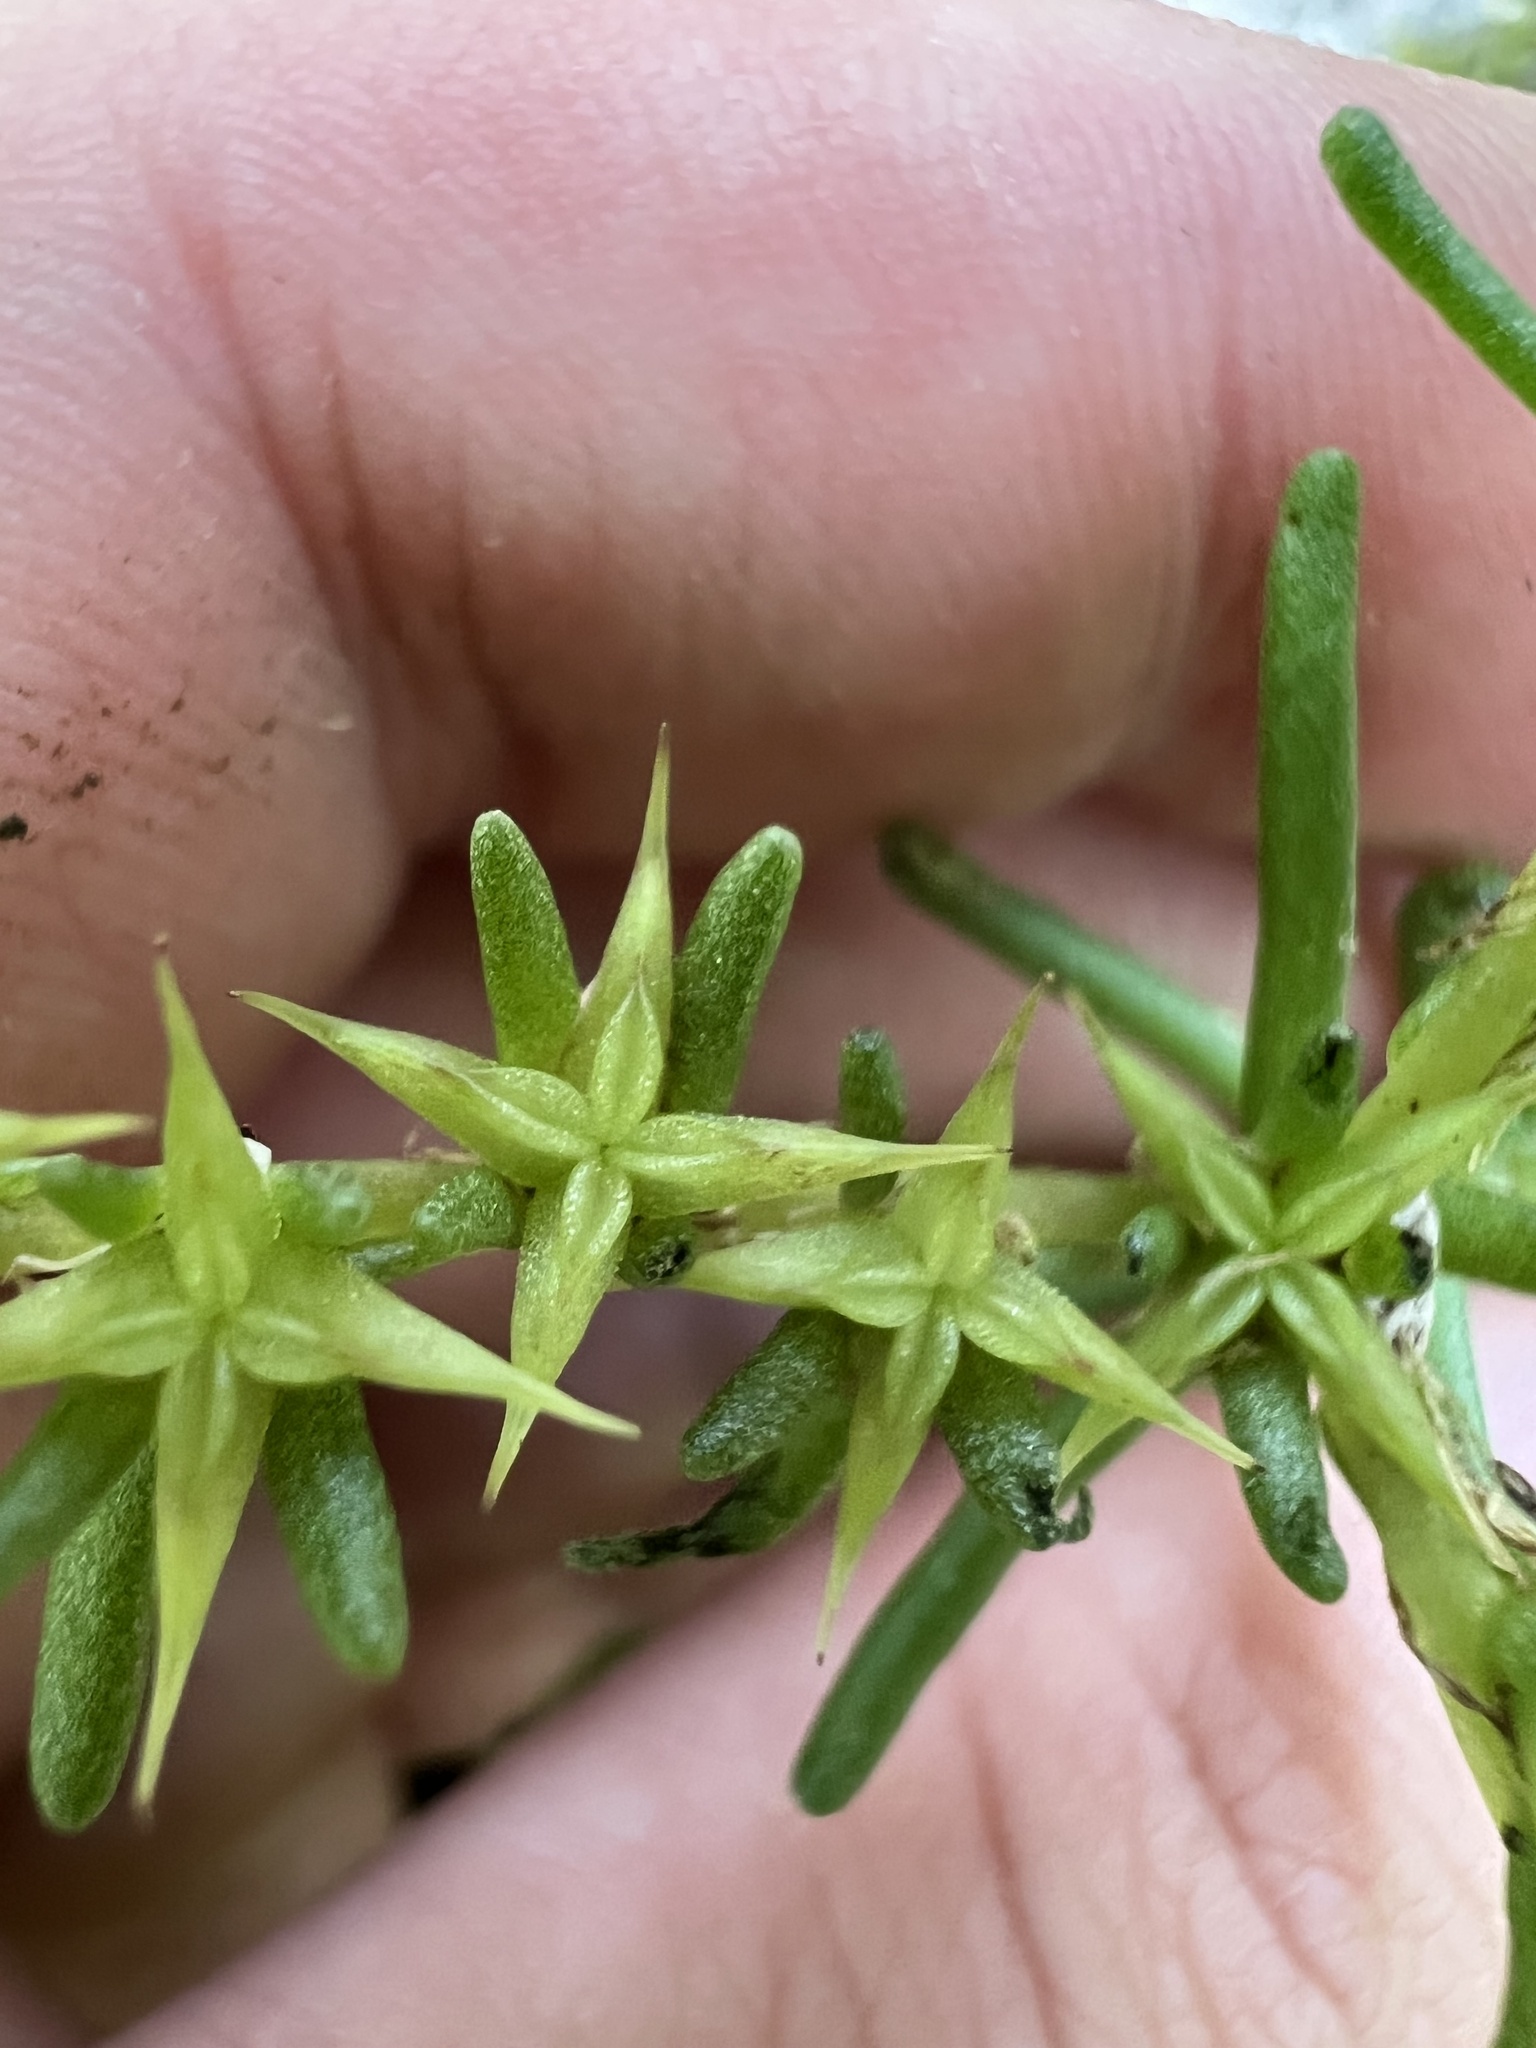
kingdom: Plantae
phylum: Tracheophyta
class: Magnoliopsida
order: Saxifragales
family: Crassulaceae
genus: Sedum
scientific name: Sedum pulchellum
